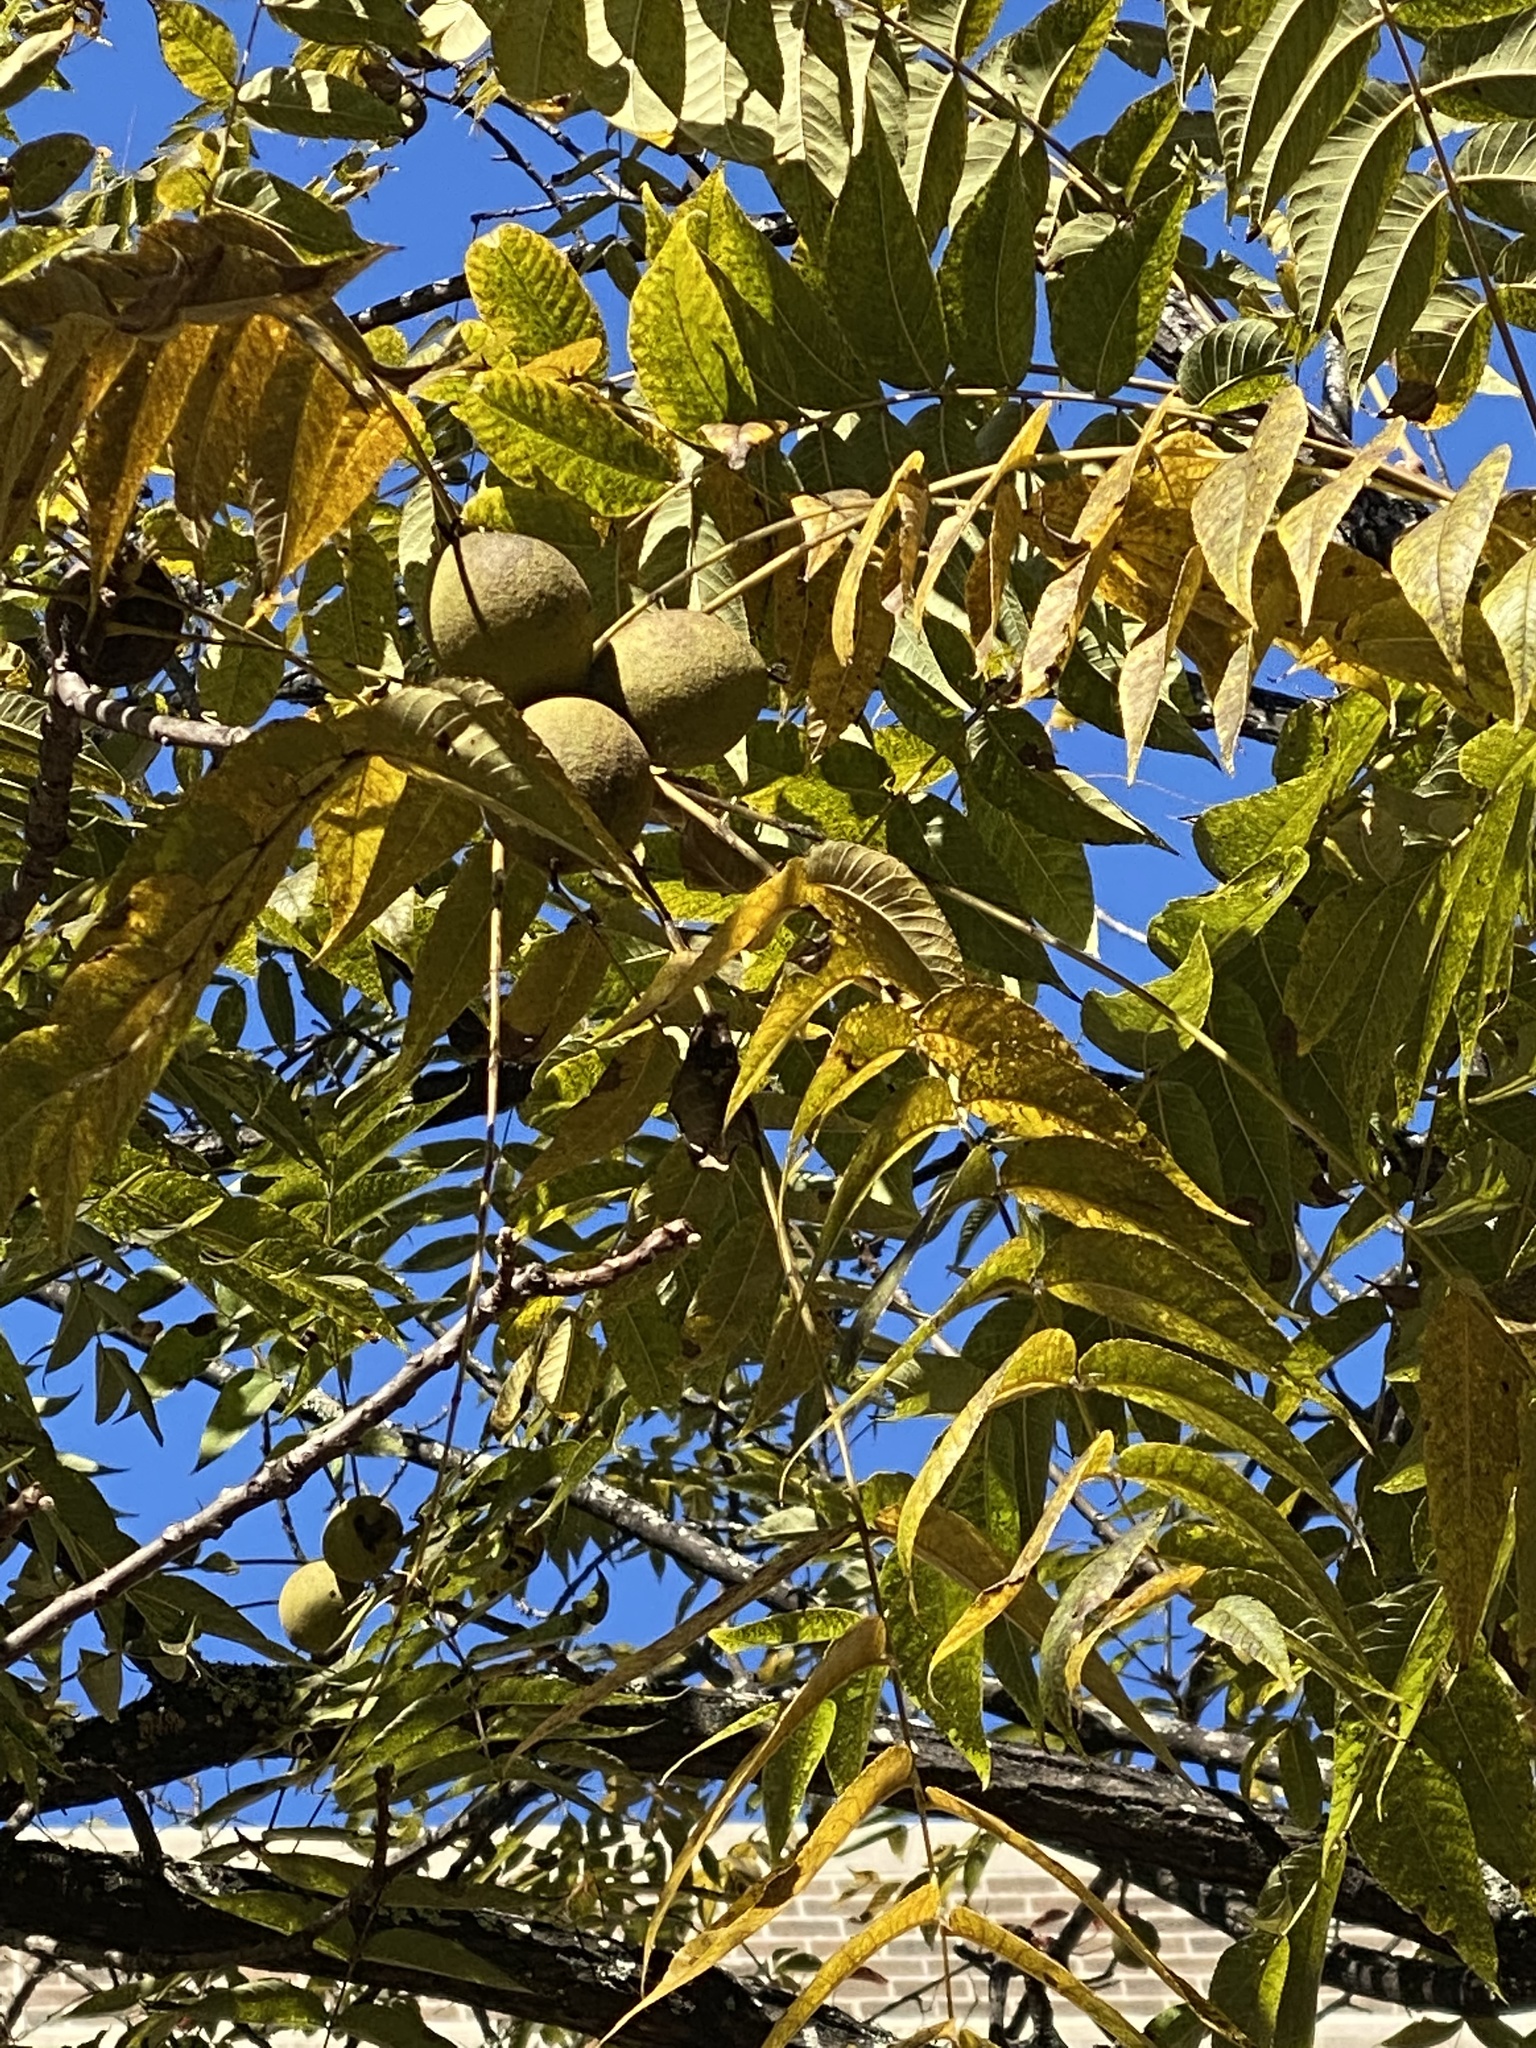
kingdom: Plantae
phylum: Tracheophyta
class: Magnoliopsida
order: Fagales
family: Juglandaceae
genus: Juglans
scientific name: Juglans nigra
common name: Black walnut
